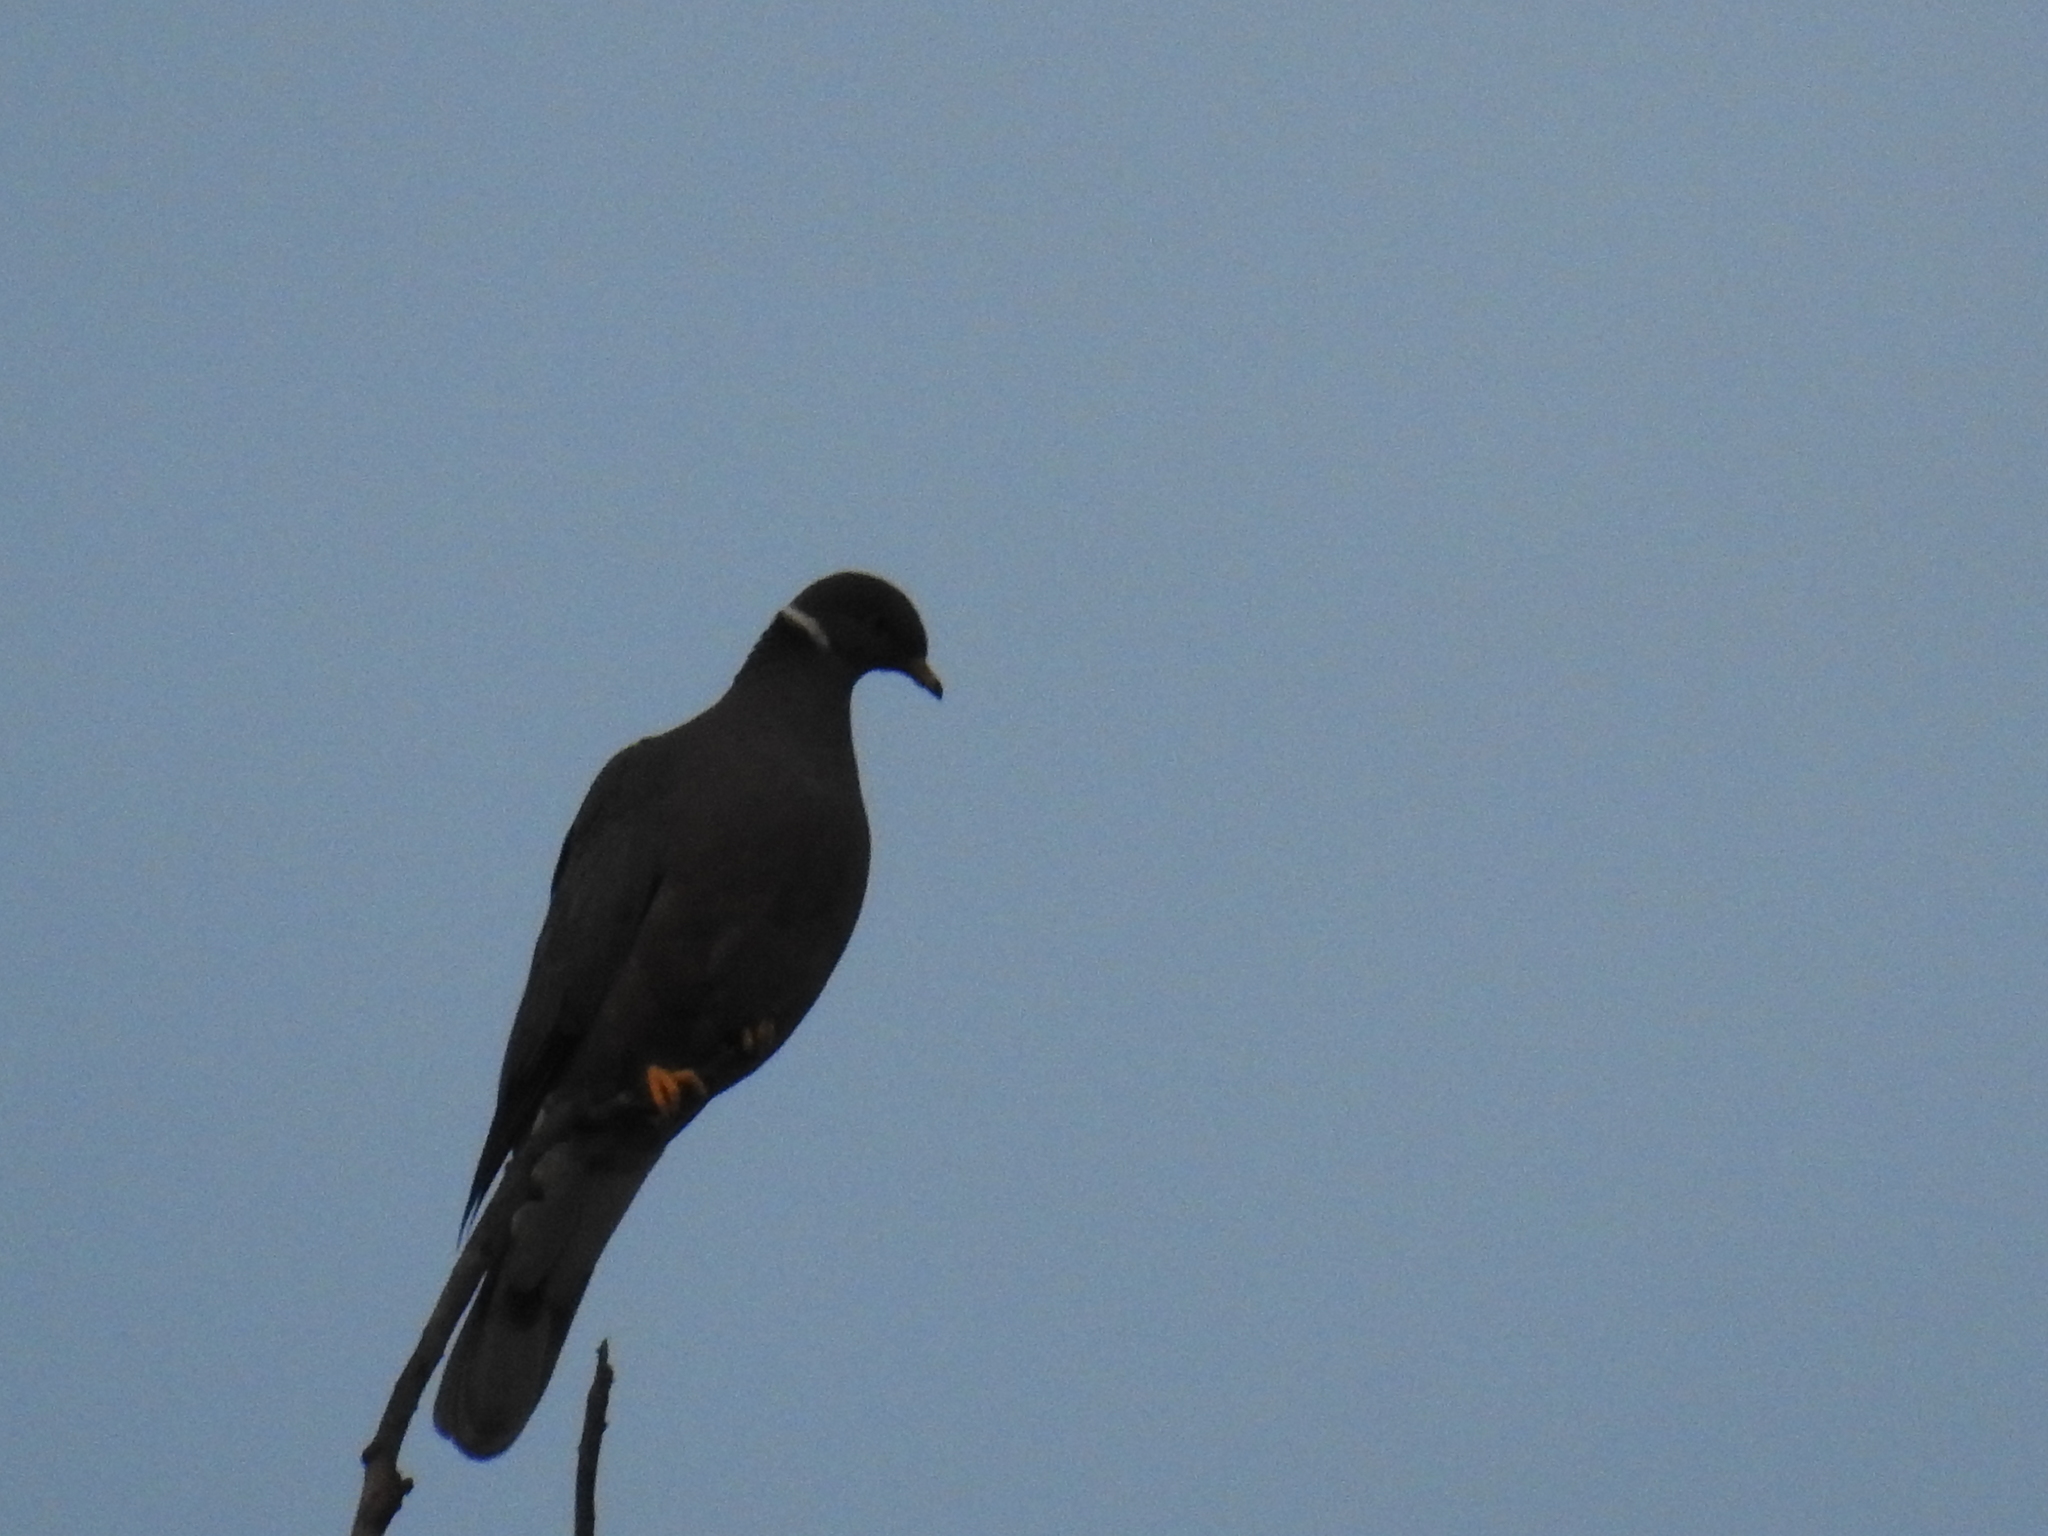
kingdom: Animalia
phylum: Chordata
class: Aves
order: Columbiformes
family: Columbidae
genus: Patagioenas
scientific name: Patagioenas fasciata
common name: Band-tailed pigeon
